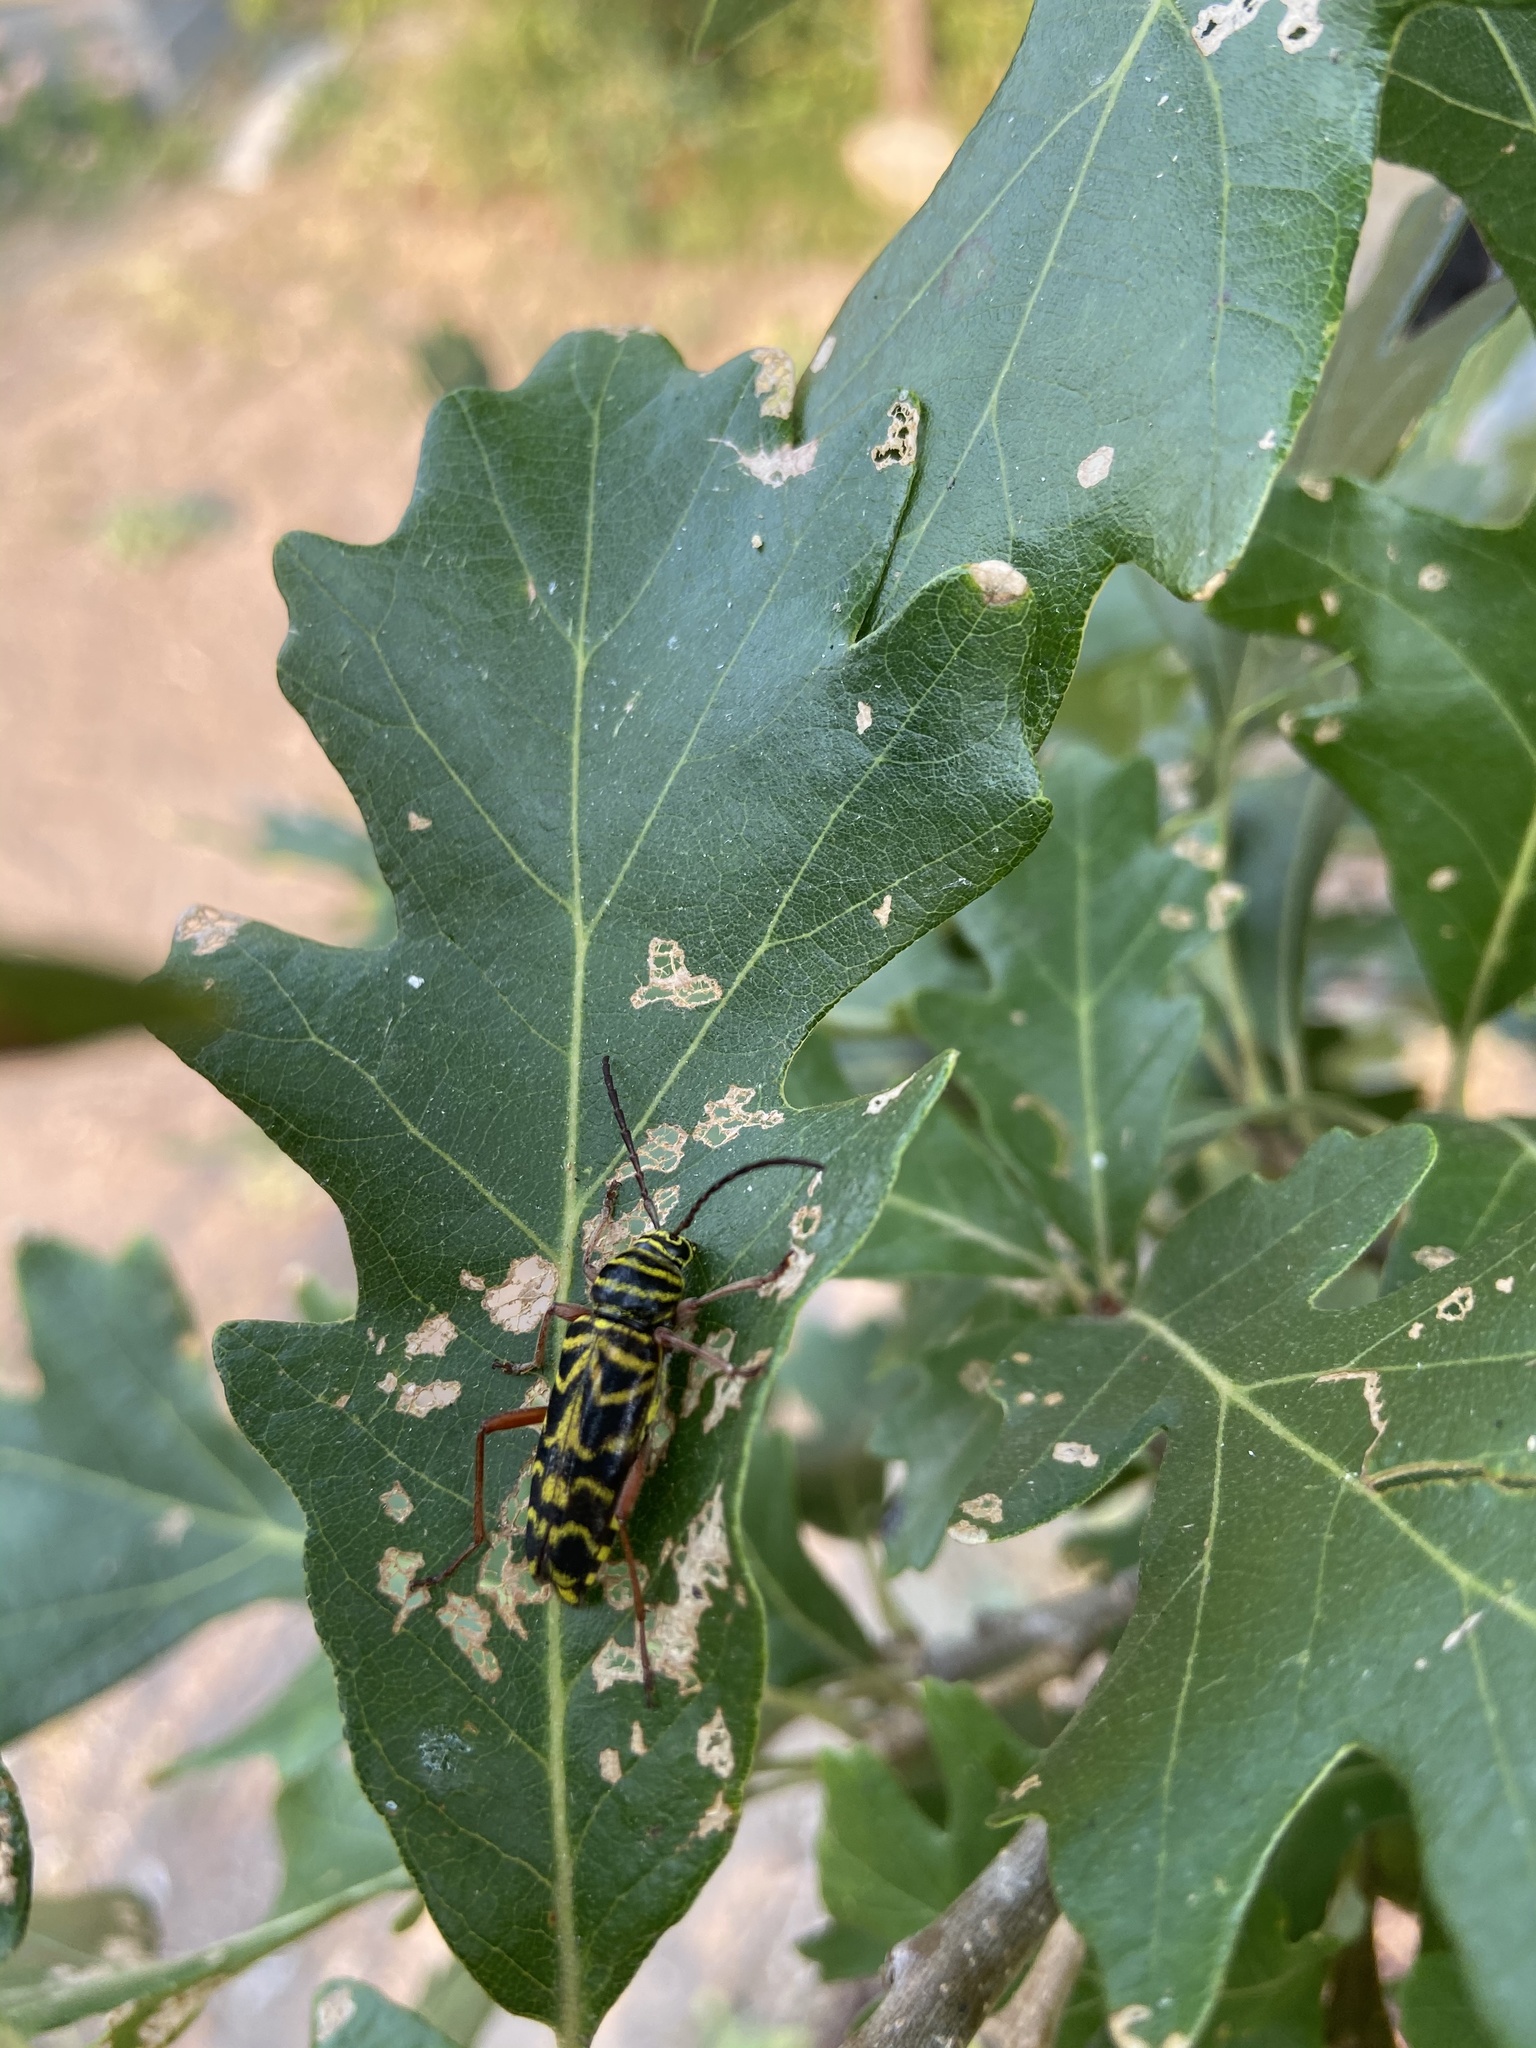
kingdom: Animalia
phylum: Arthropoda
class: Insecta
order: Coleoptera
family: Cerambycidae
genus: Megacyllene
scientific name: Megacyllene robiniae
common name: Locust borer
